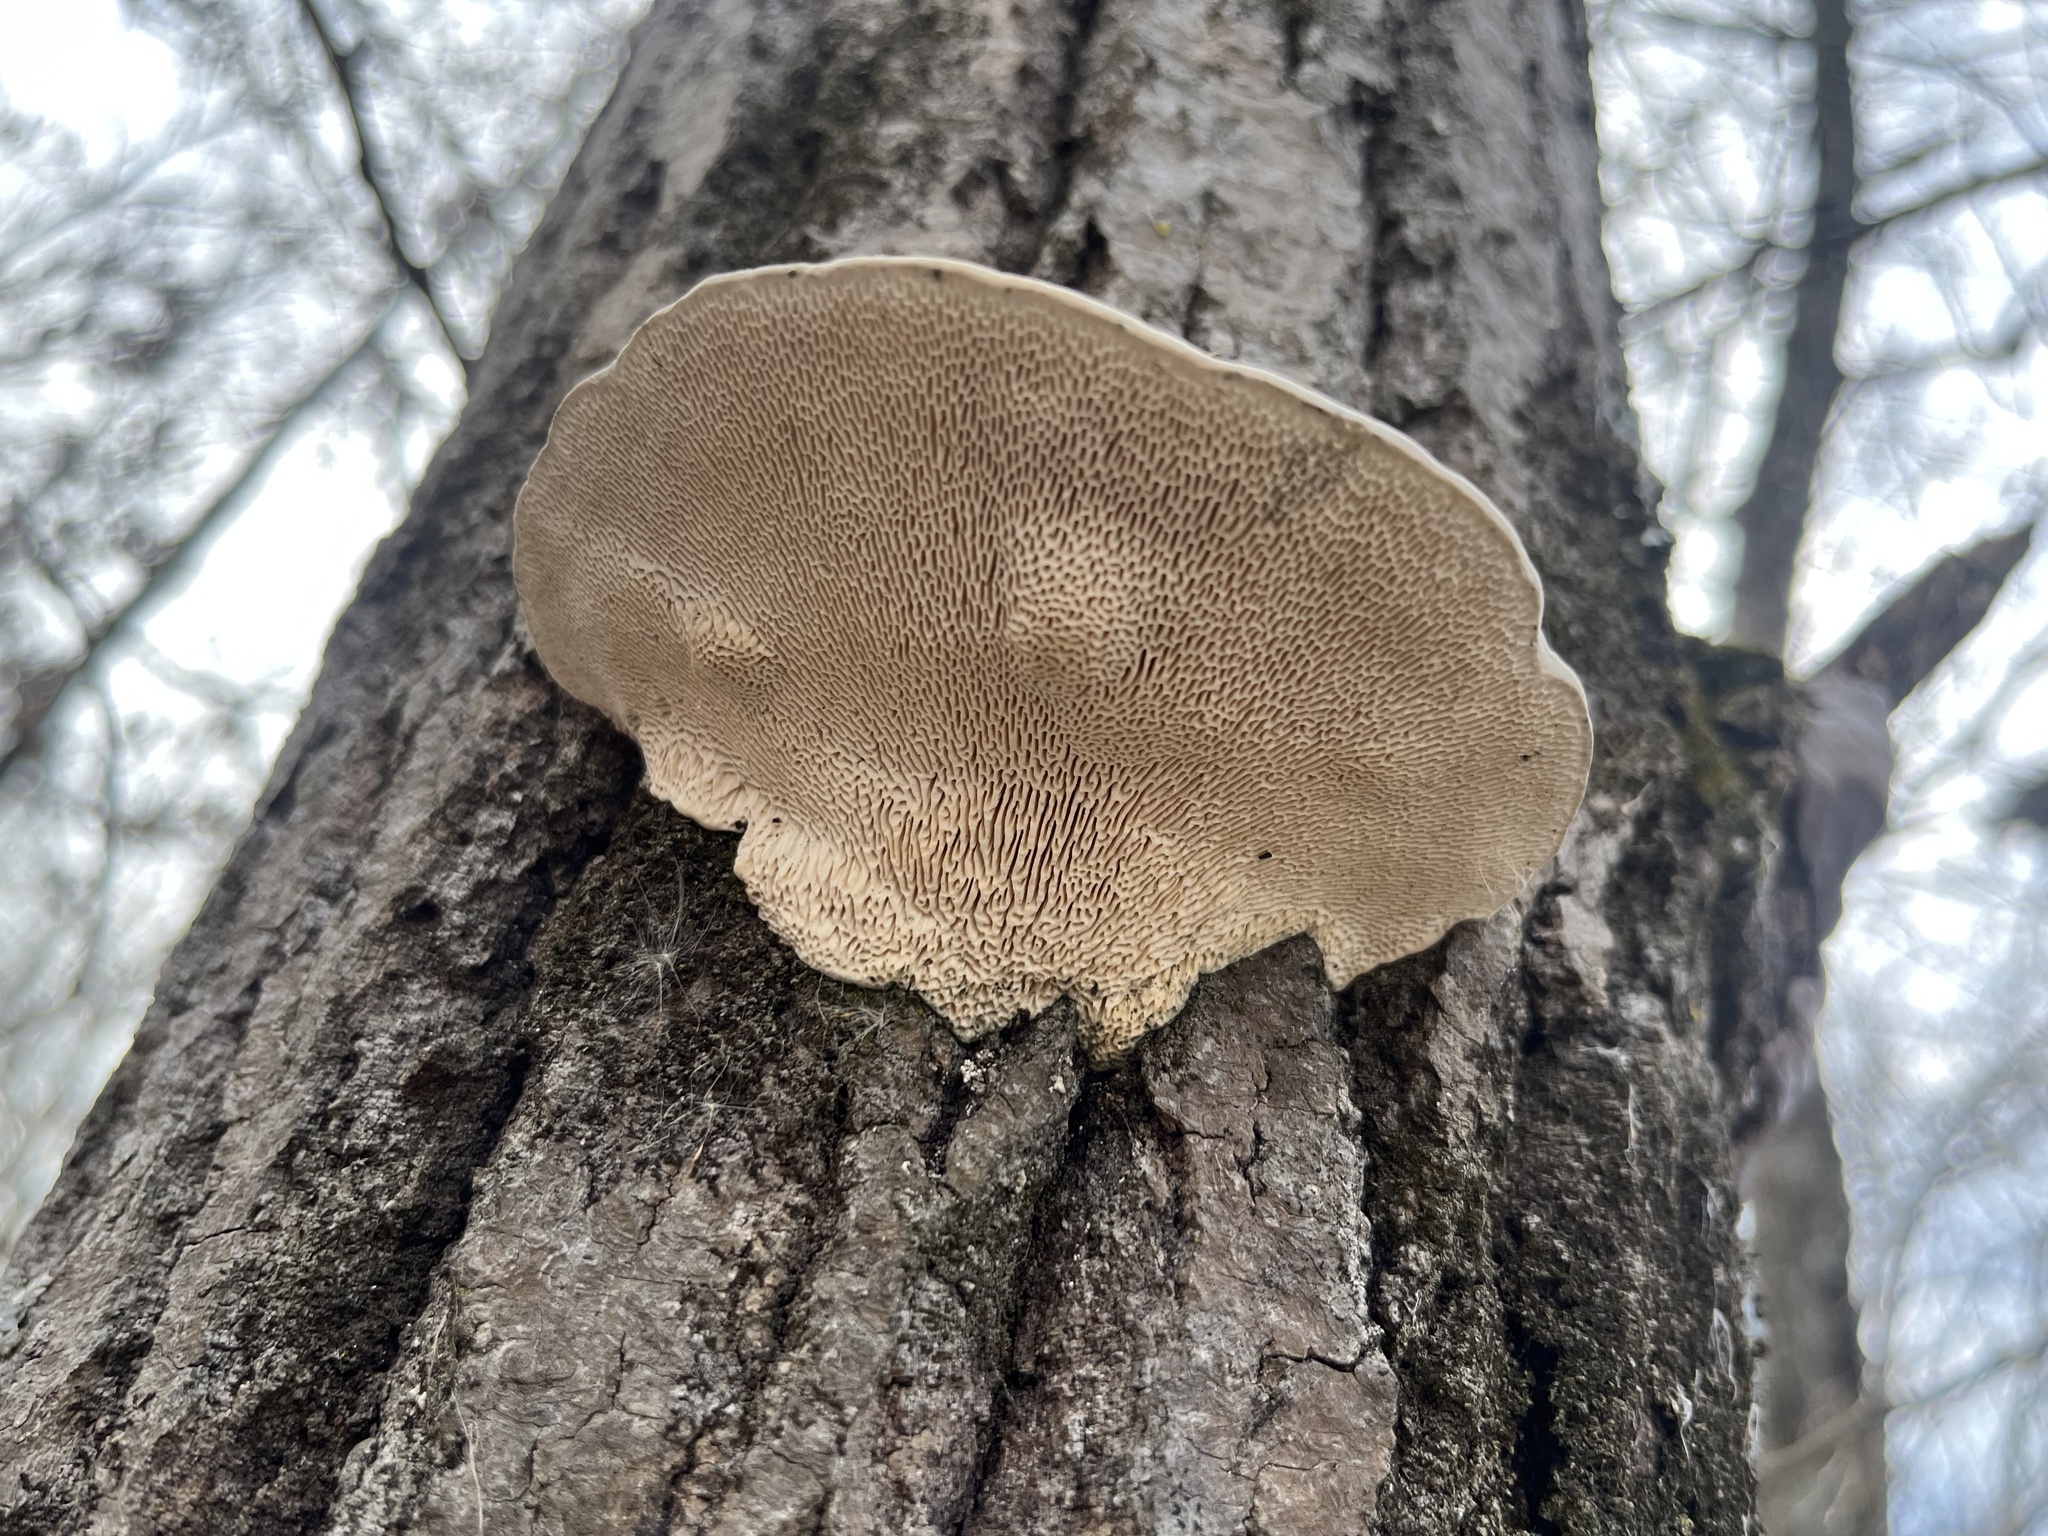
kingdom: Fungi
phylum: Basidiomycota
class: Agaricomycetes
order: Polyporales
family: Polyporaceae
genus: Trametes
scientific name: Trametes gibbosa
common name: Lumpy bracket
